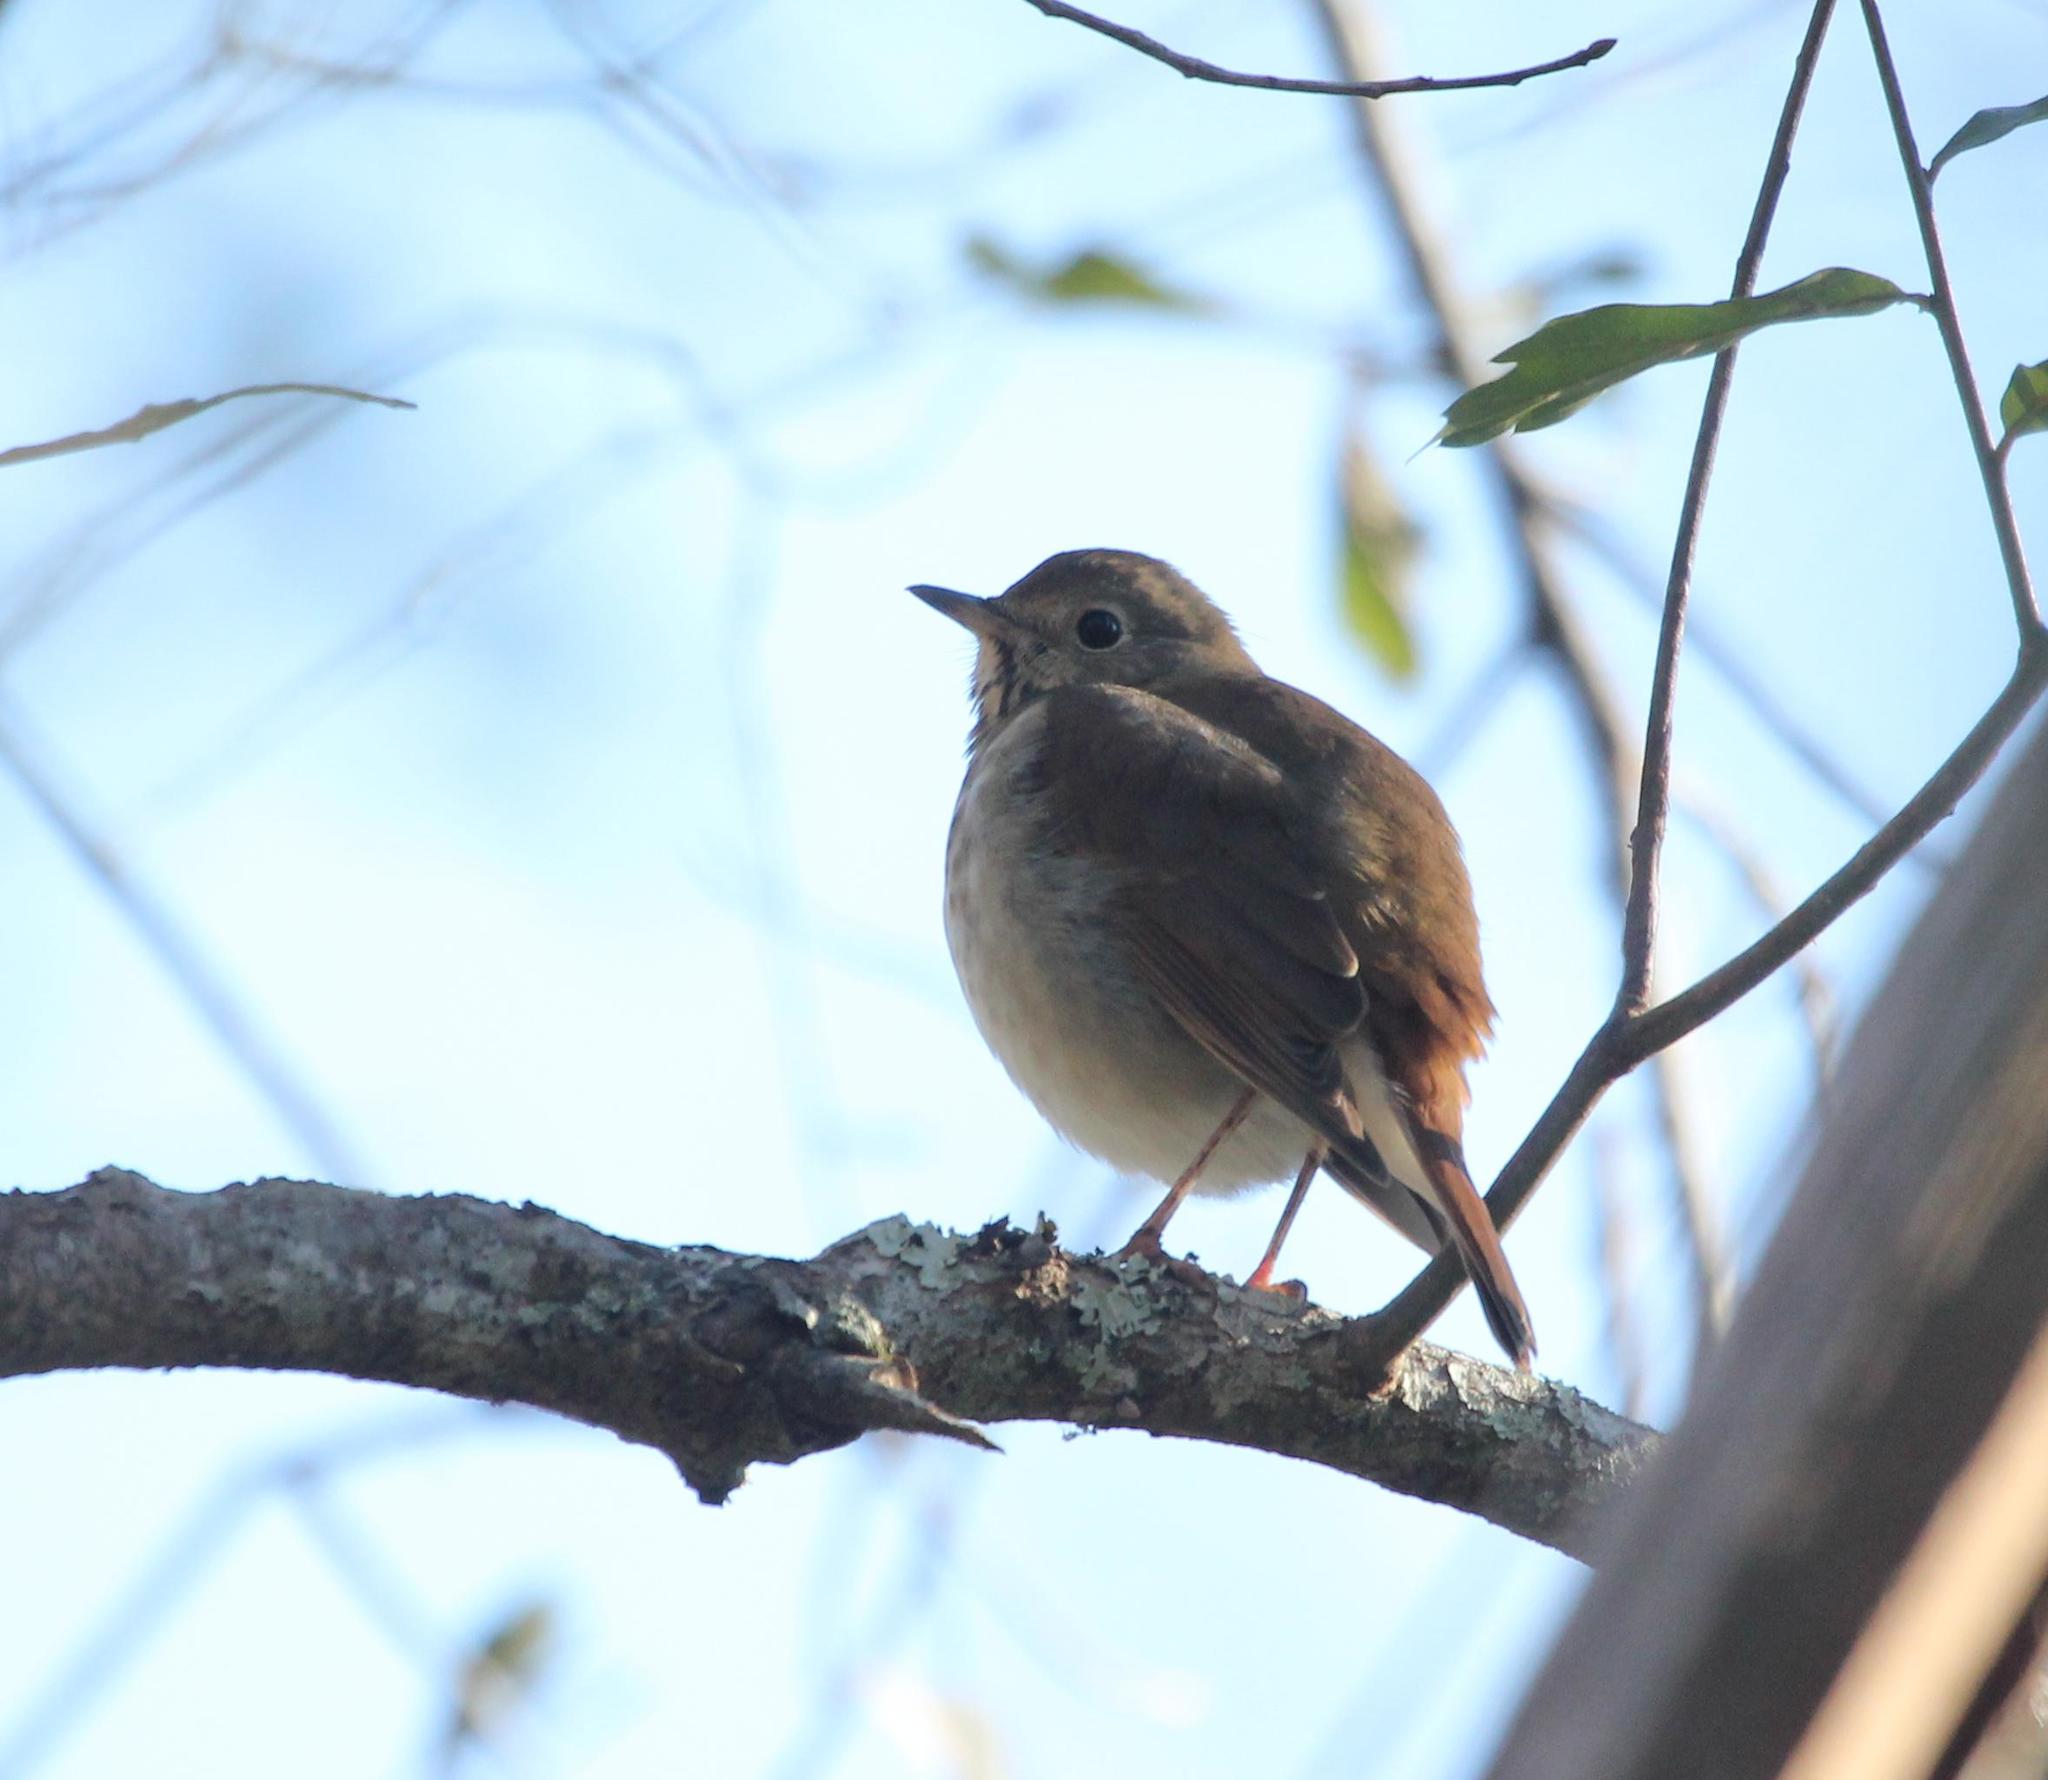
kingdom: Animalia
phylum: Chordata
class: Aves
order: Passeriformes
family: Turdidae
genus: Catharus
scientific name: Catharus guttatus
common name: Hermit thrush
